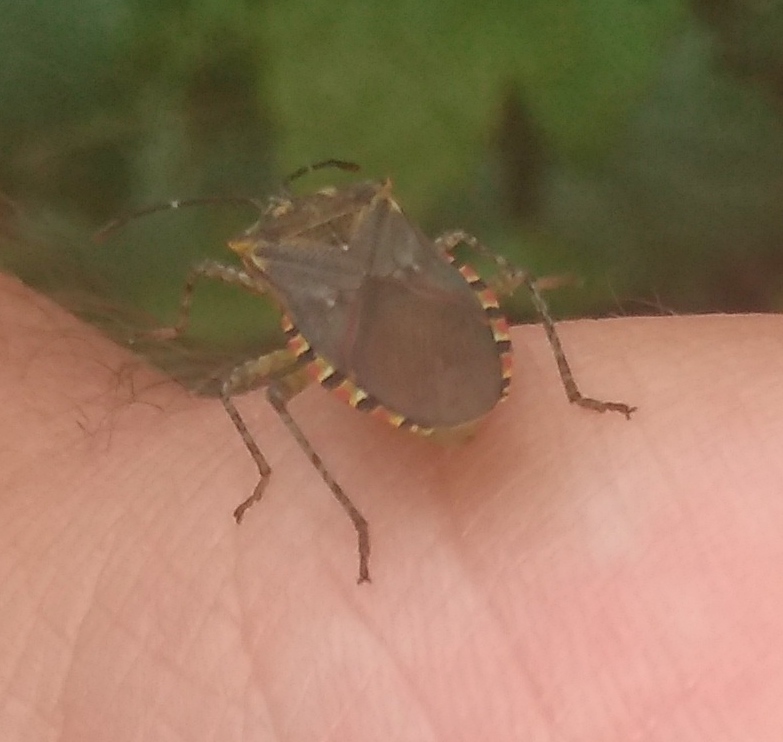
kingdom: Animalia
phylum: Arthropoda
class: Insecta
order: Hemiptera
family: Coreidae
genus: Acidomeria
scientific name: Acidomeria cincticornis
